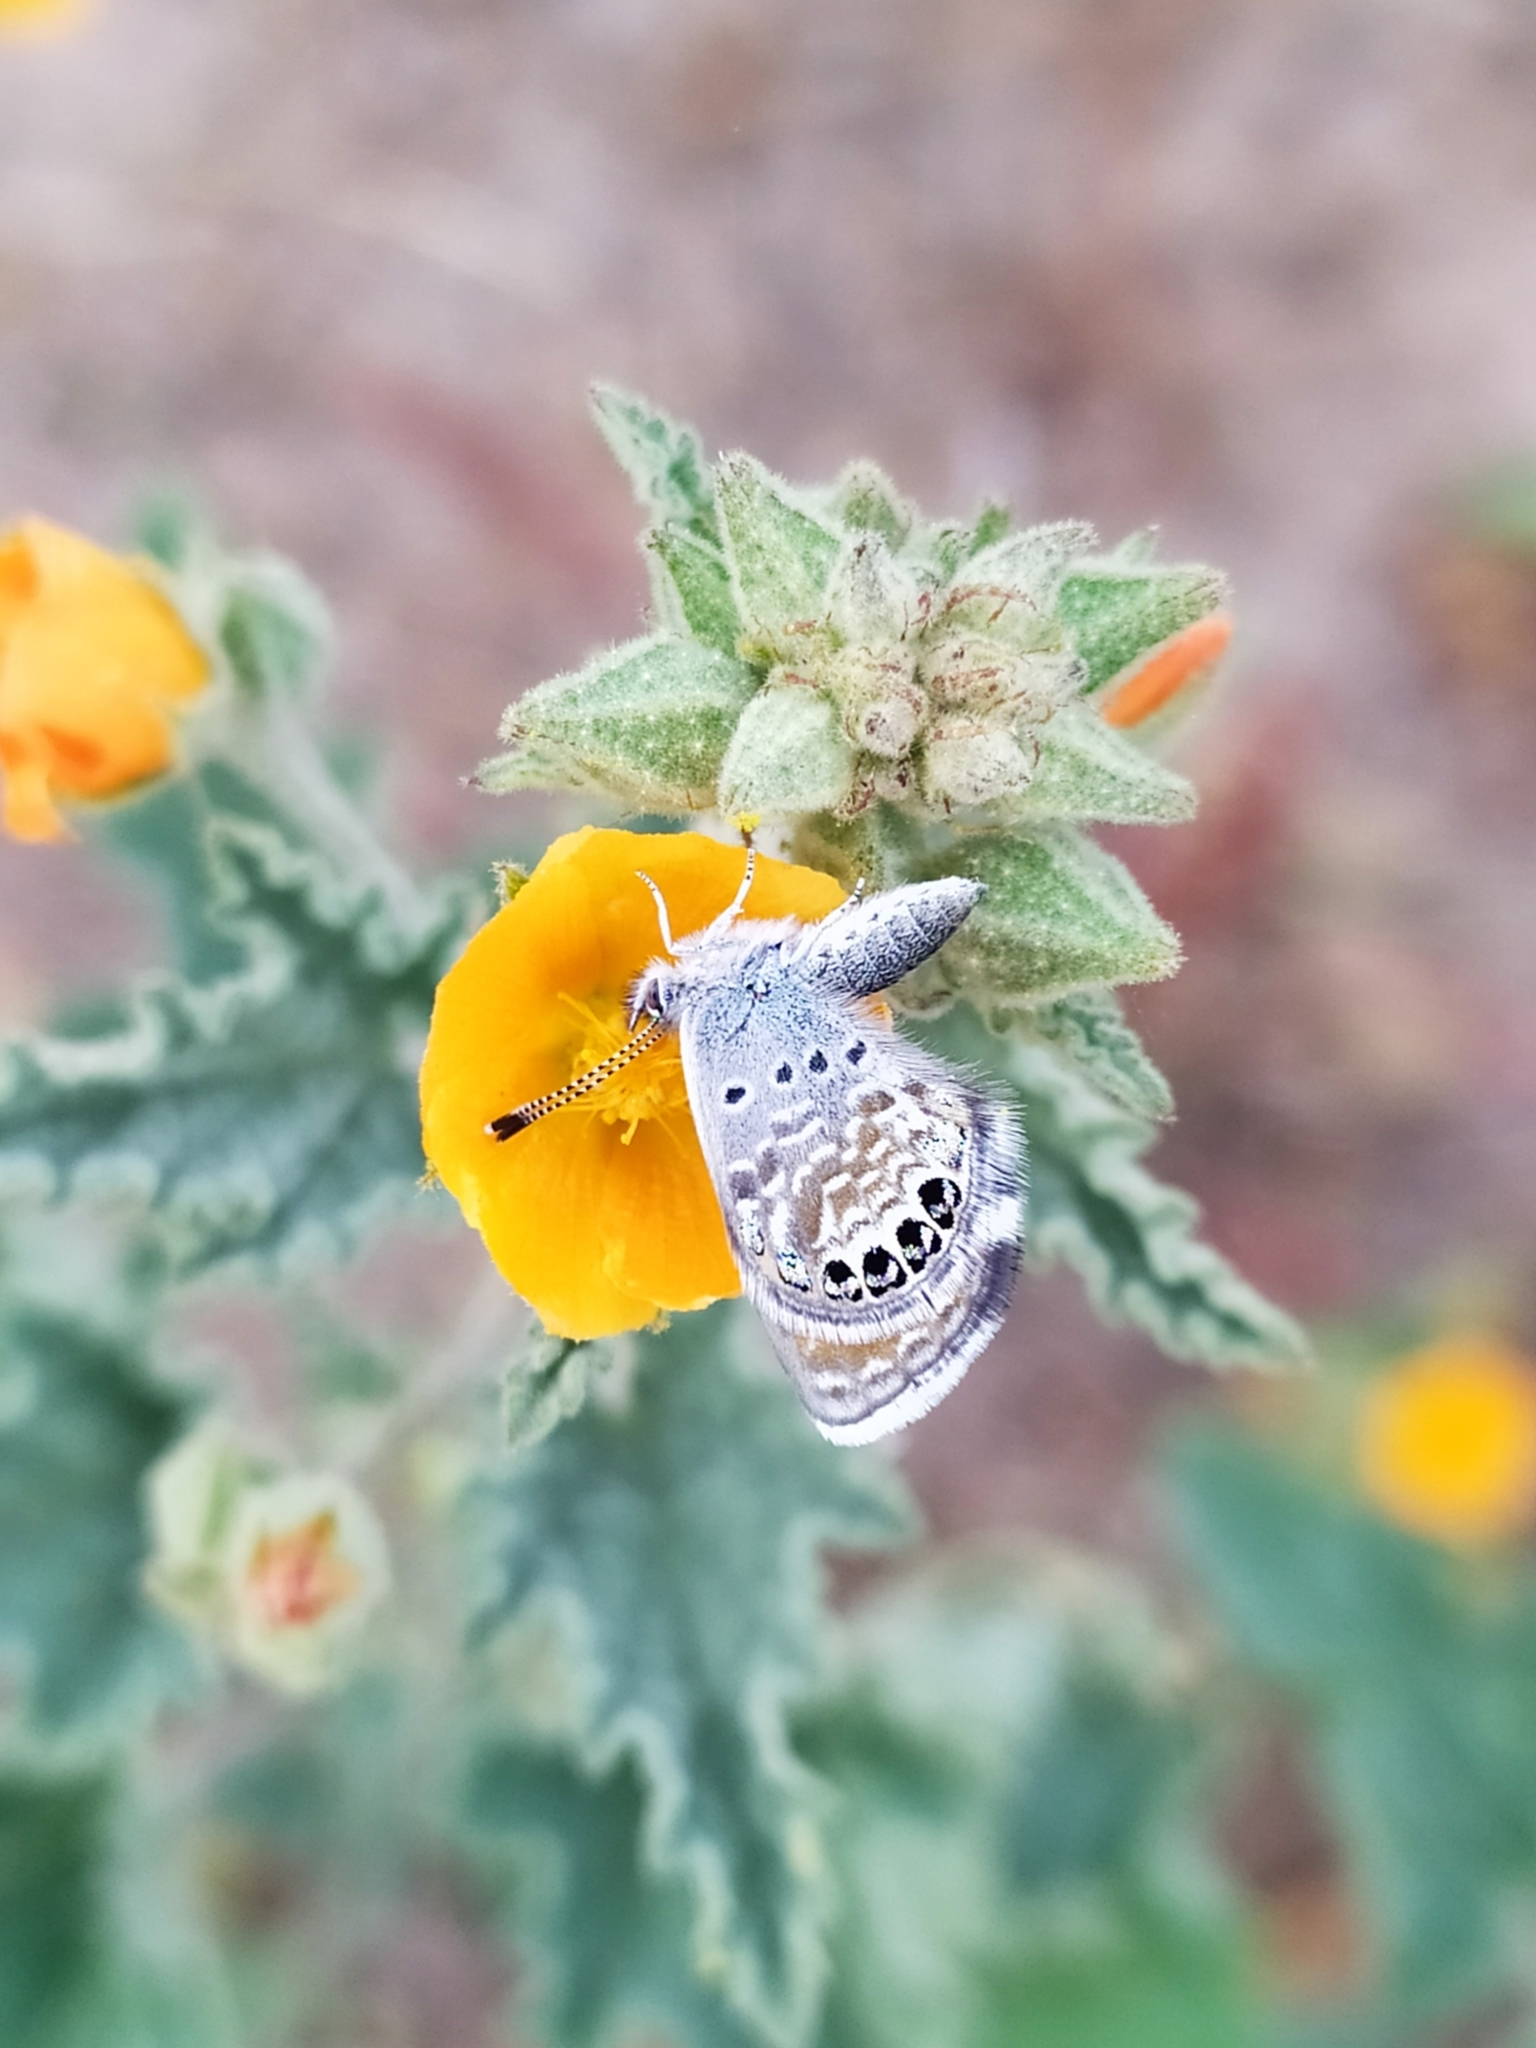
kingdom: Animalia
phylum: Arthropoda
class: Insecta
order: Lepidoptera
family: Lycaenidae
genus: Brephidium
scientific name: Brephidium exilis
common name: Pygmy blue
